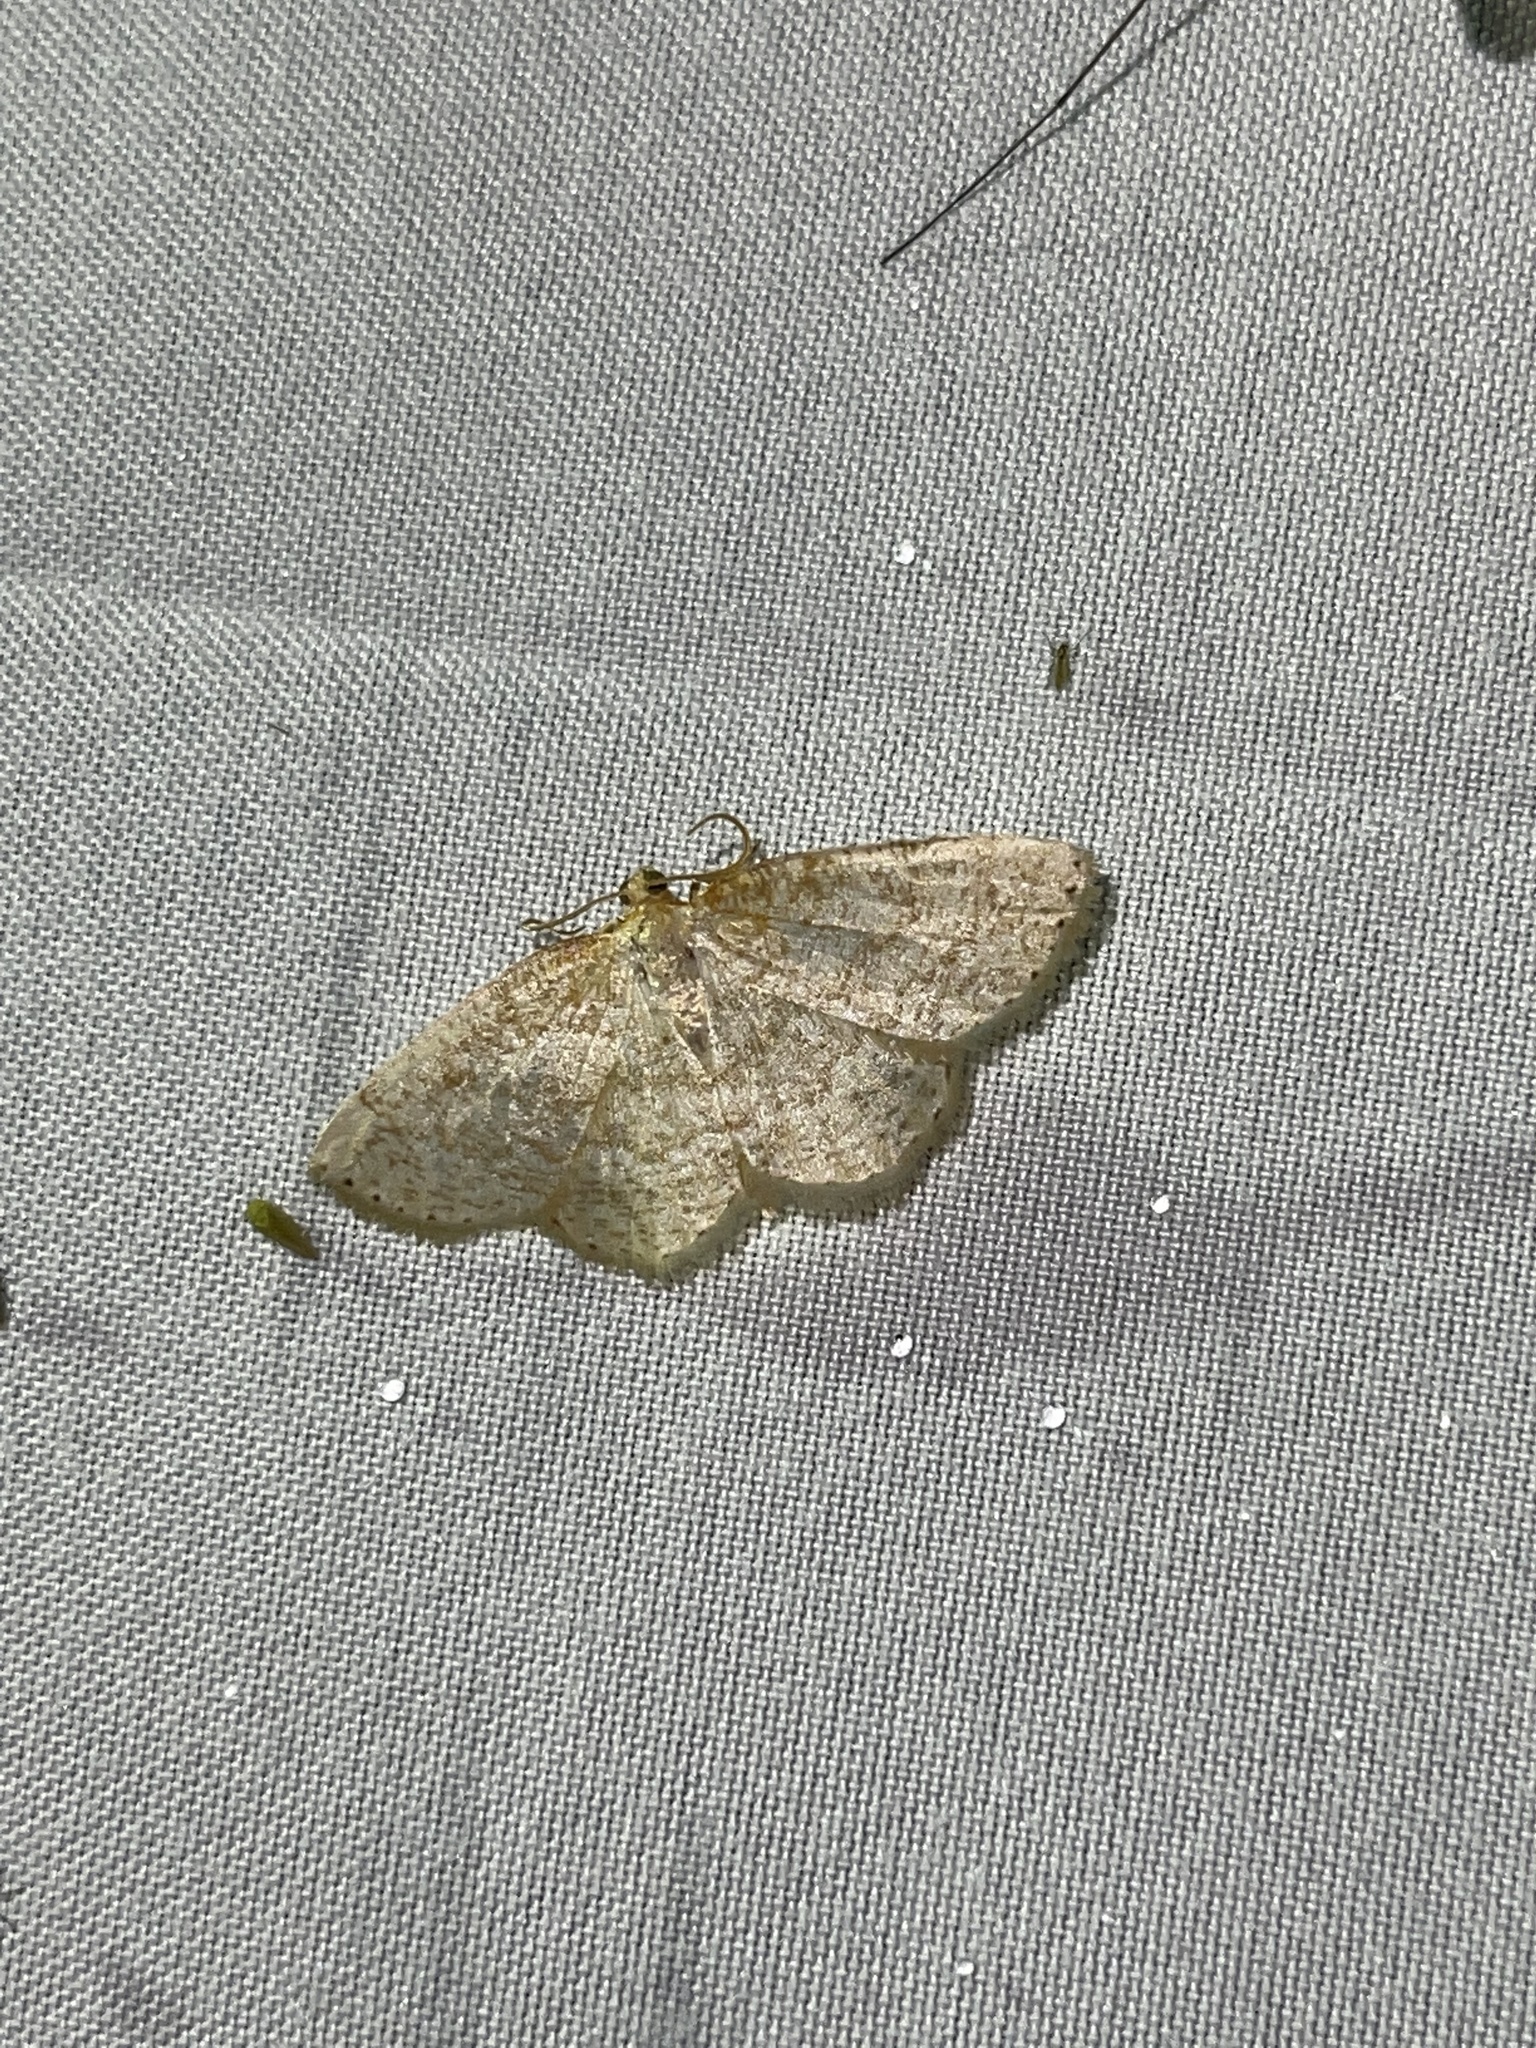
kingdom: Animalia
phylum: Arthropoda
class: Insecta
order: Lepidoptera
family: Geometridae
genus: Gueneria
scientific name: Gueneria similaria
